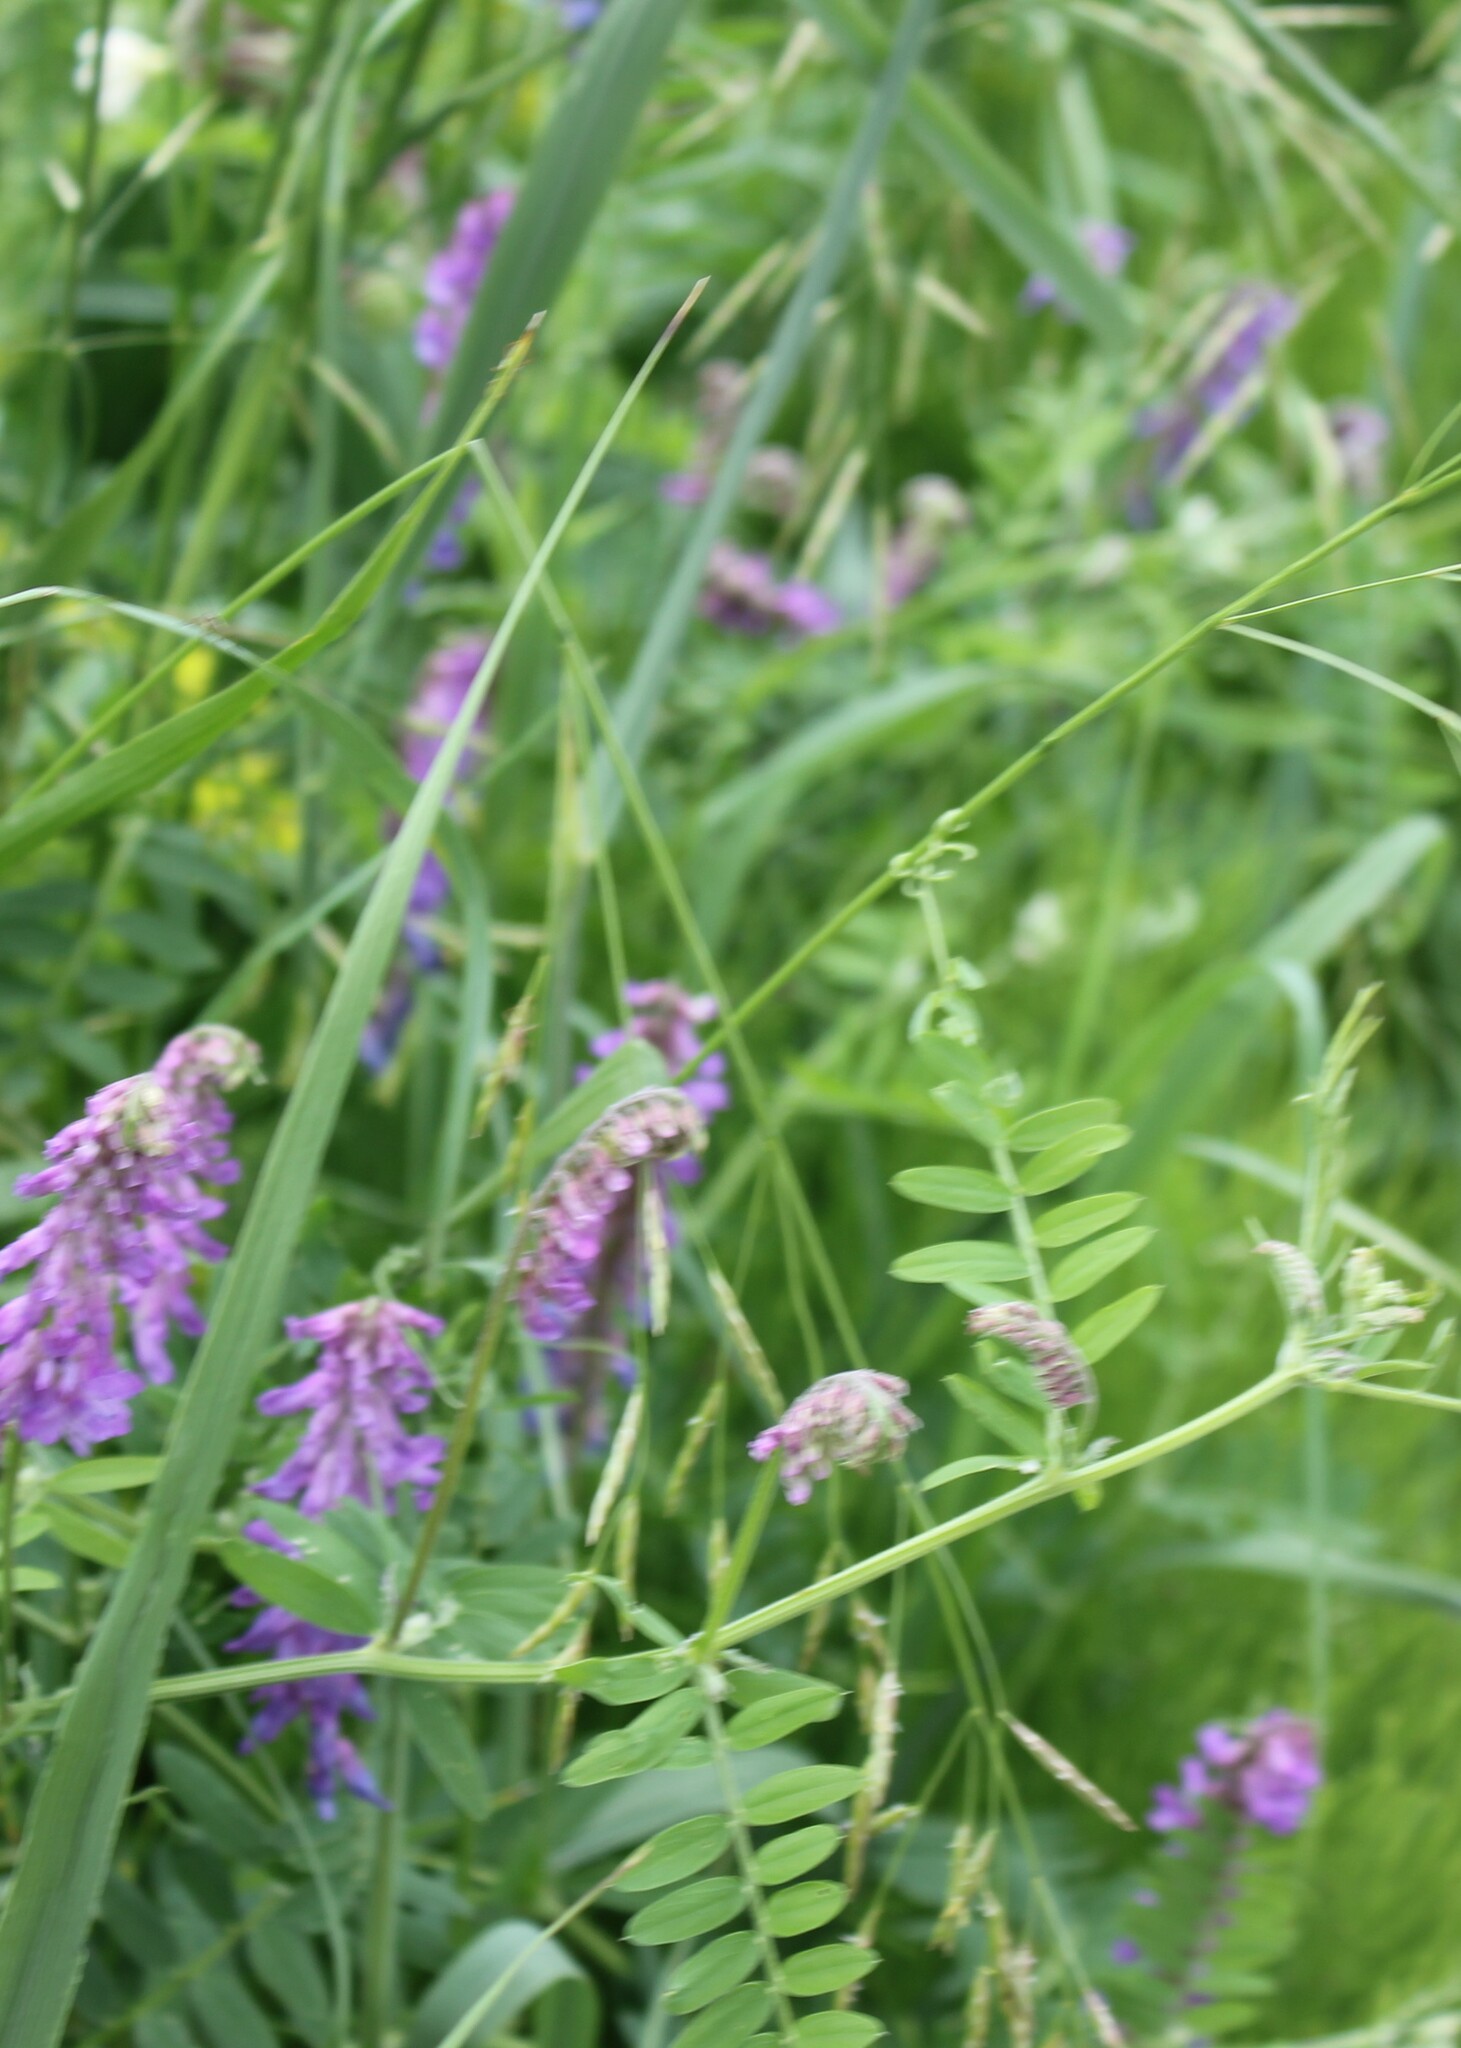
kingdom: Plantae
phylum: Tracheophyta
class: Magnoliopsida
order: Fabales
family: Fabaceae
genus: Vicia
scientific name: Vicia cracca
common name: Bird vetch
